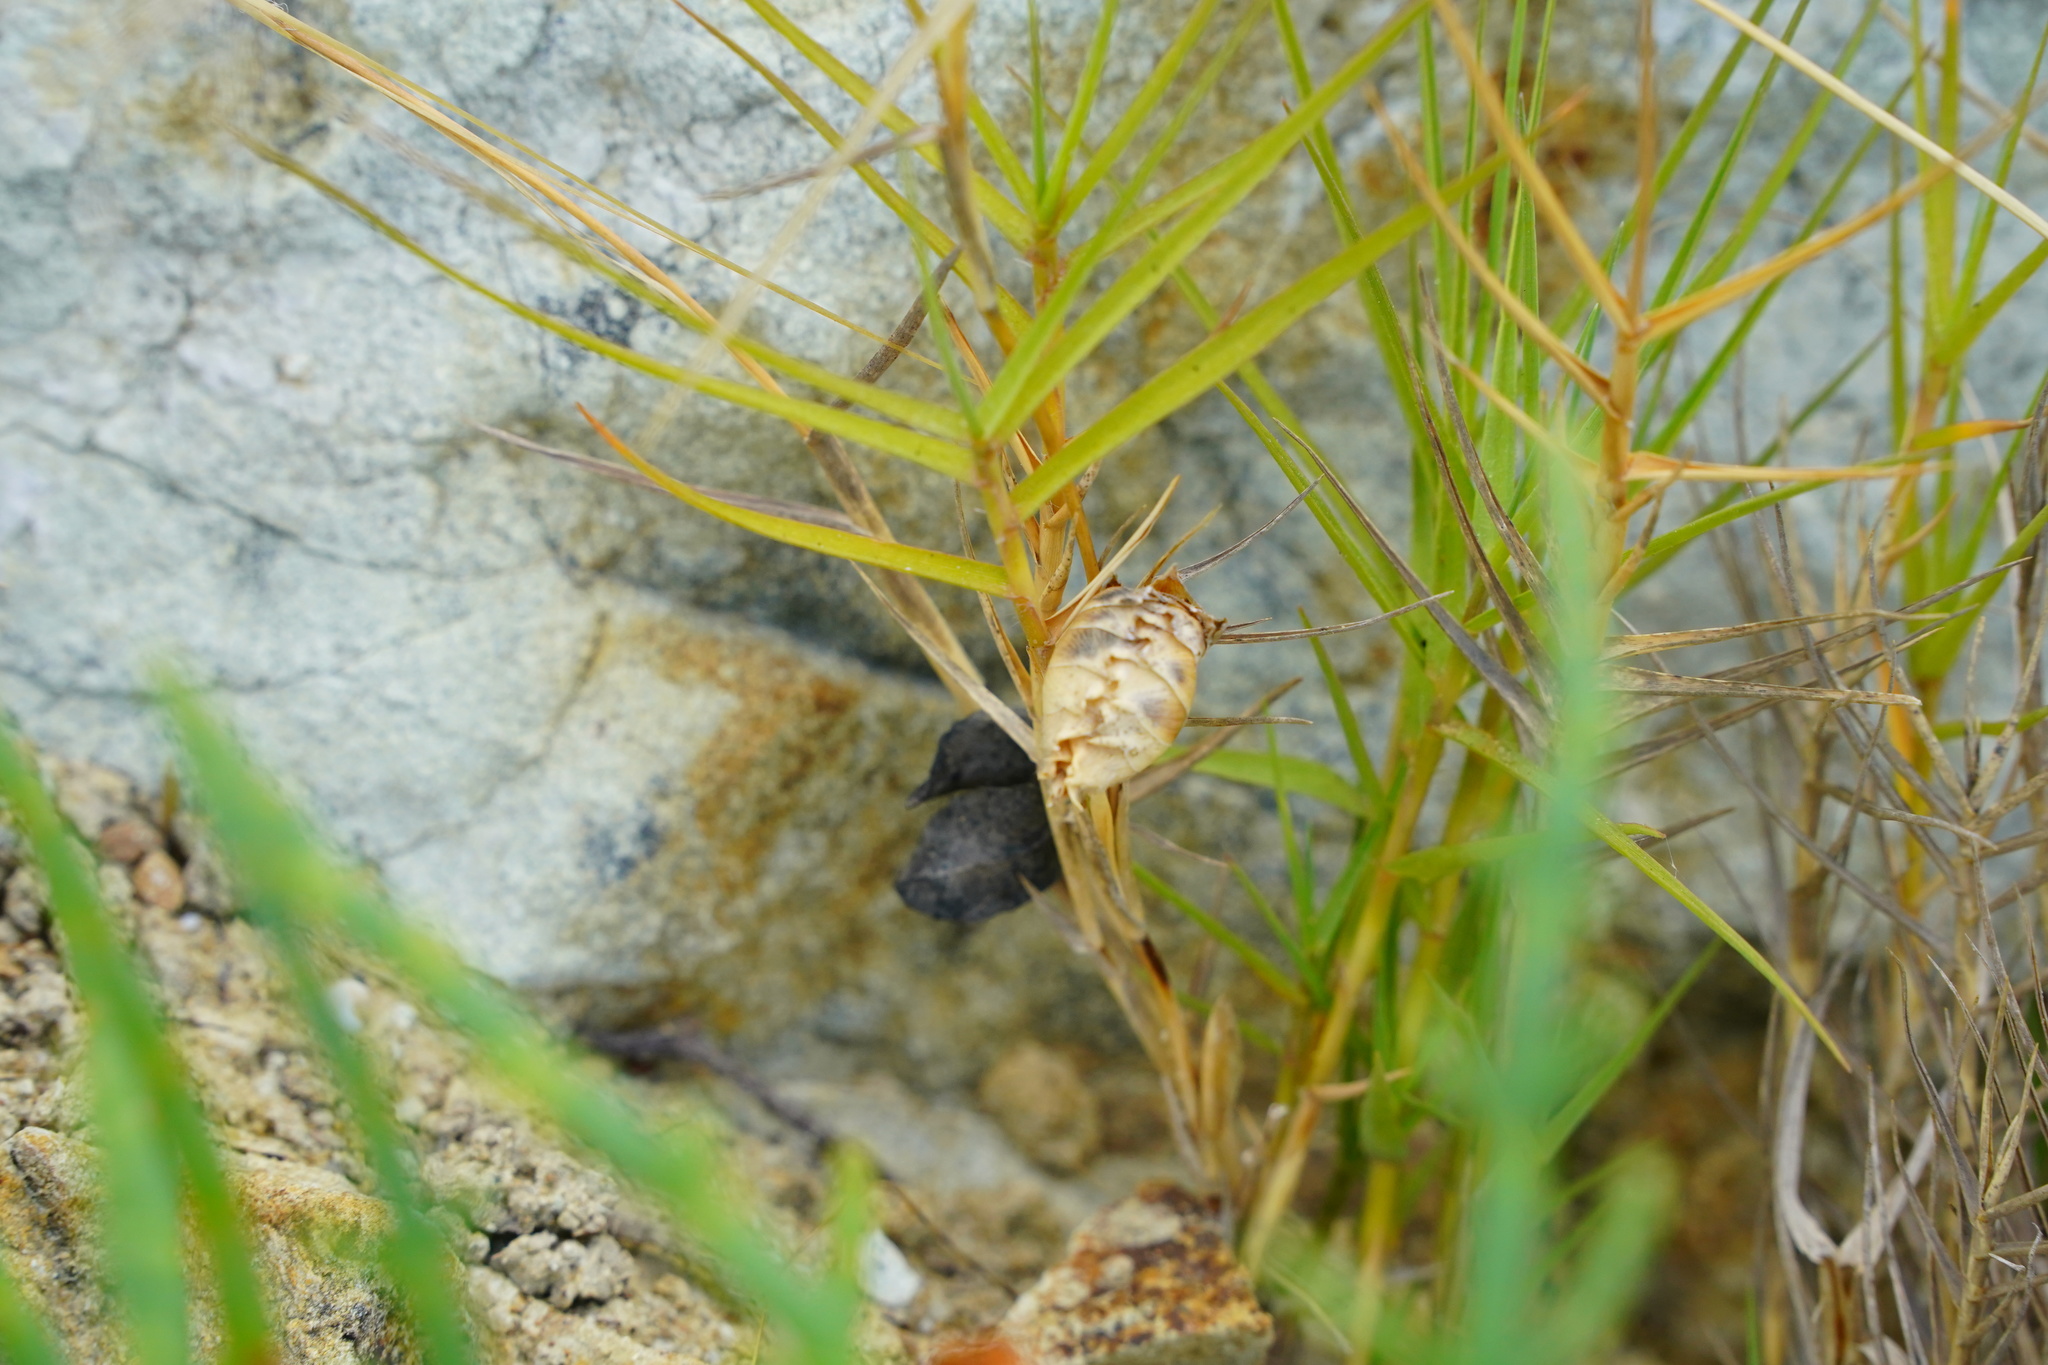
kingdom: Plantae
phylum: Tracheophyta
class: Liliopsida
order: Poales
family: Poaceae
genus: Distichlis
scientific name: Distichlis spicata
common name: Saltgrass
